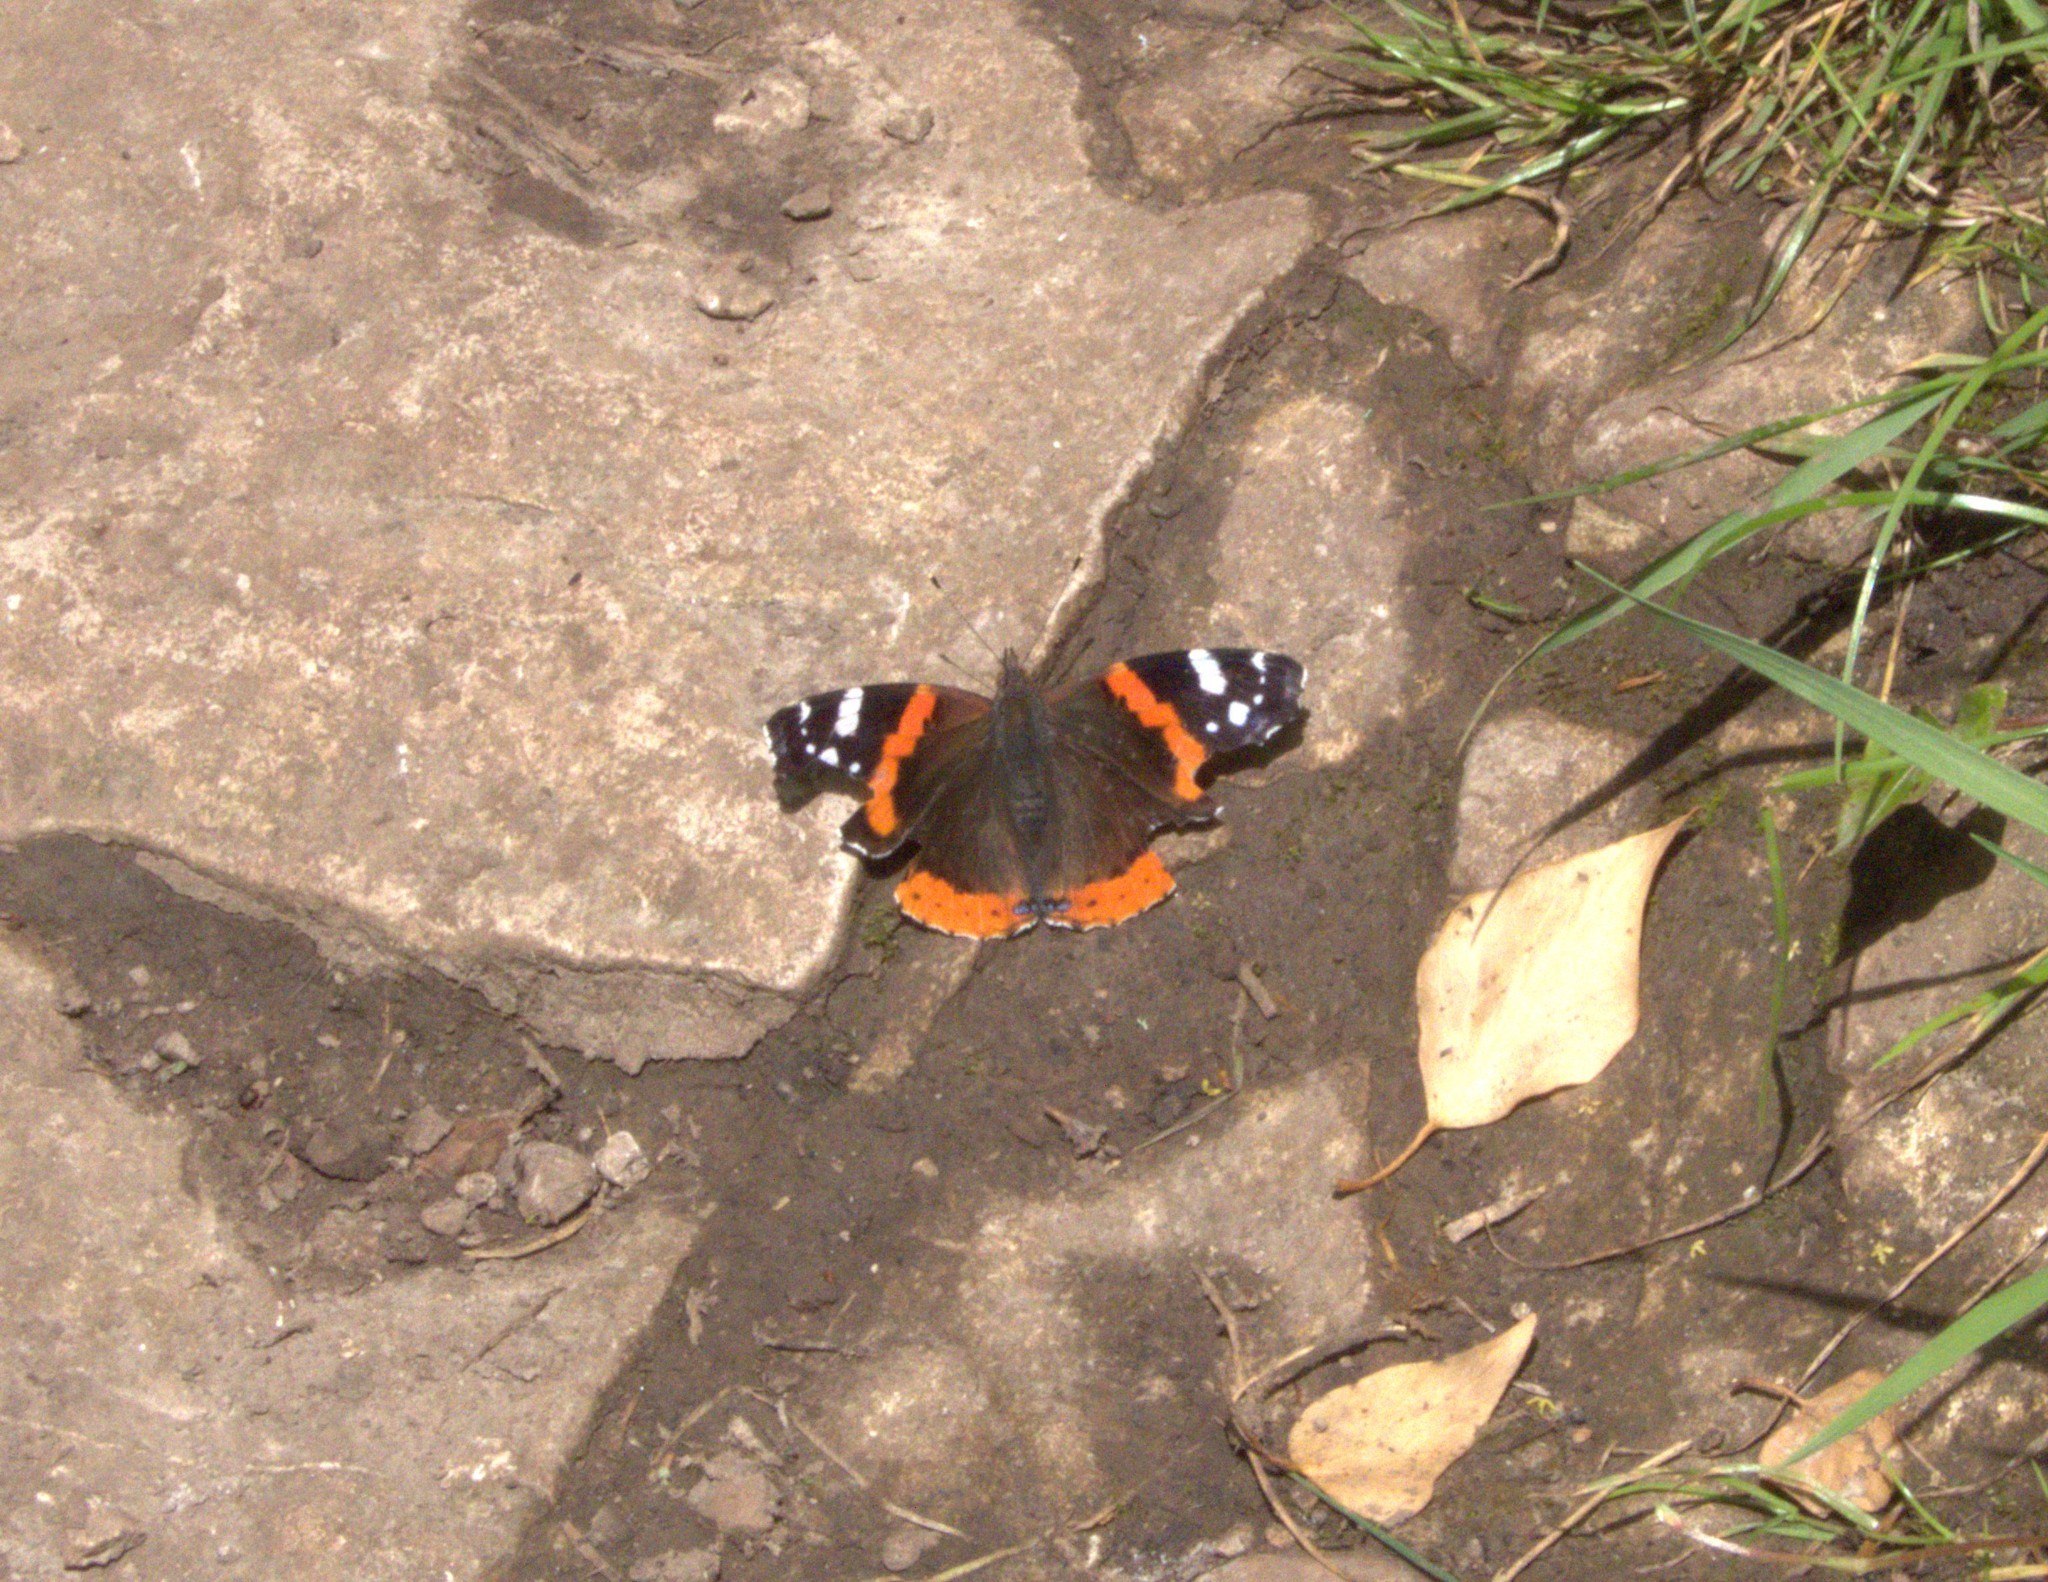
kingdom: Animalia
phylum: Arthropoda
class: Insecta
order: Lepidoptera
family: Nymphalidae
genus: Vanessa
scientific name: Vanessa atalanta
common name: Red admiral
